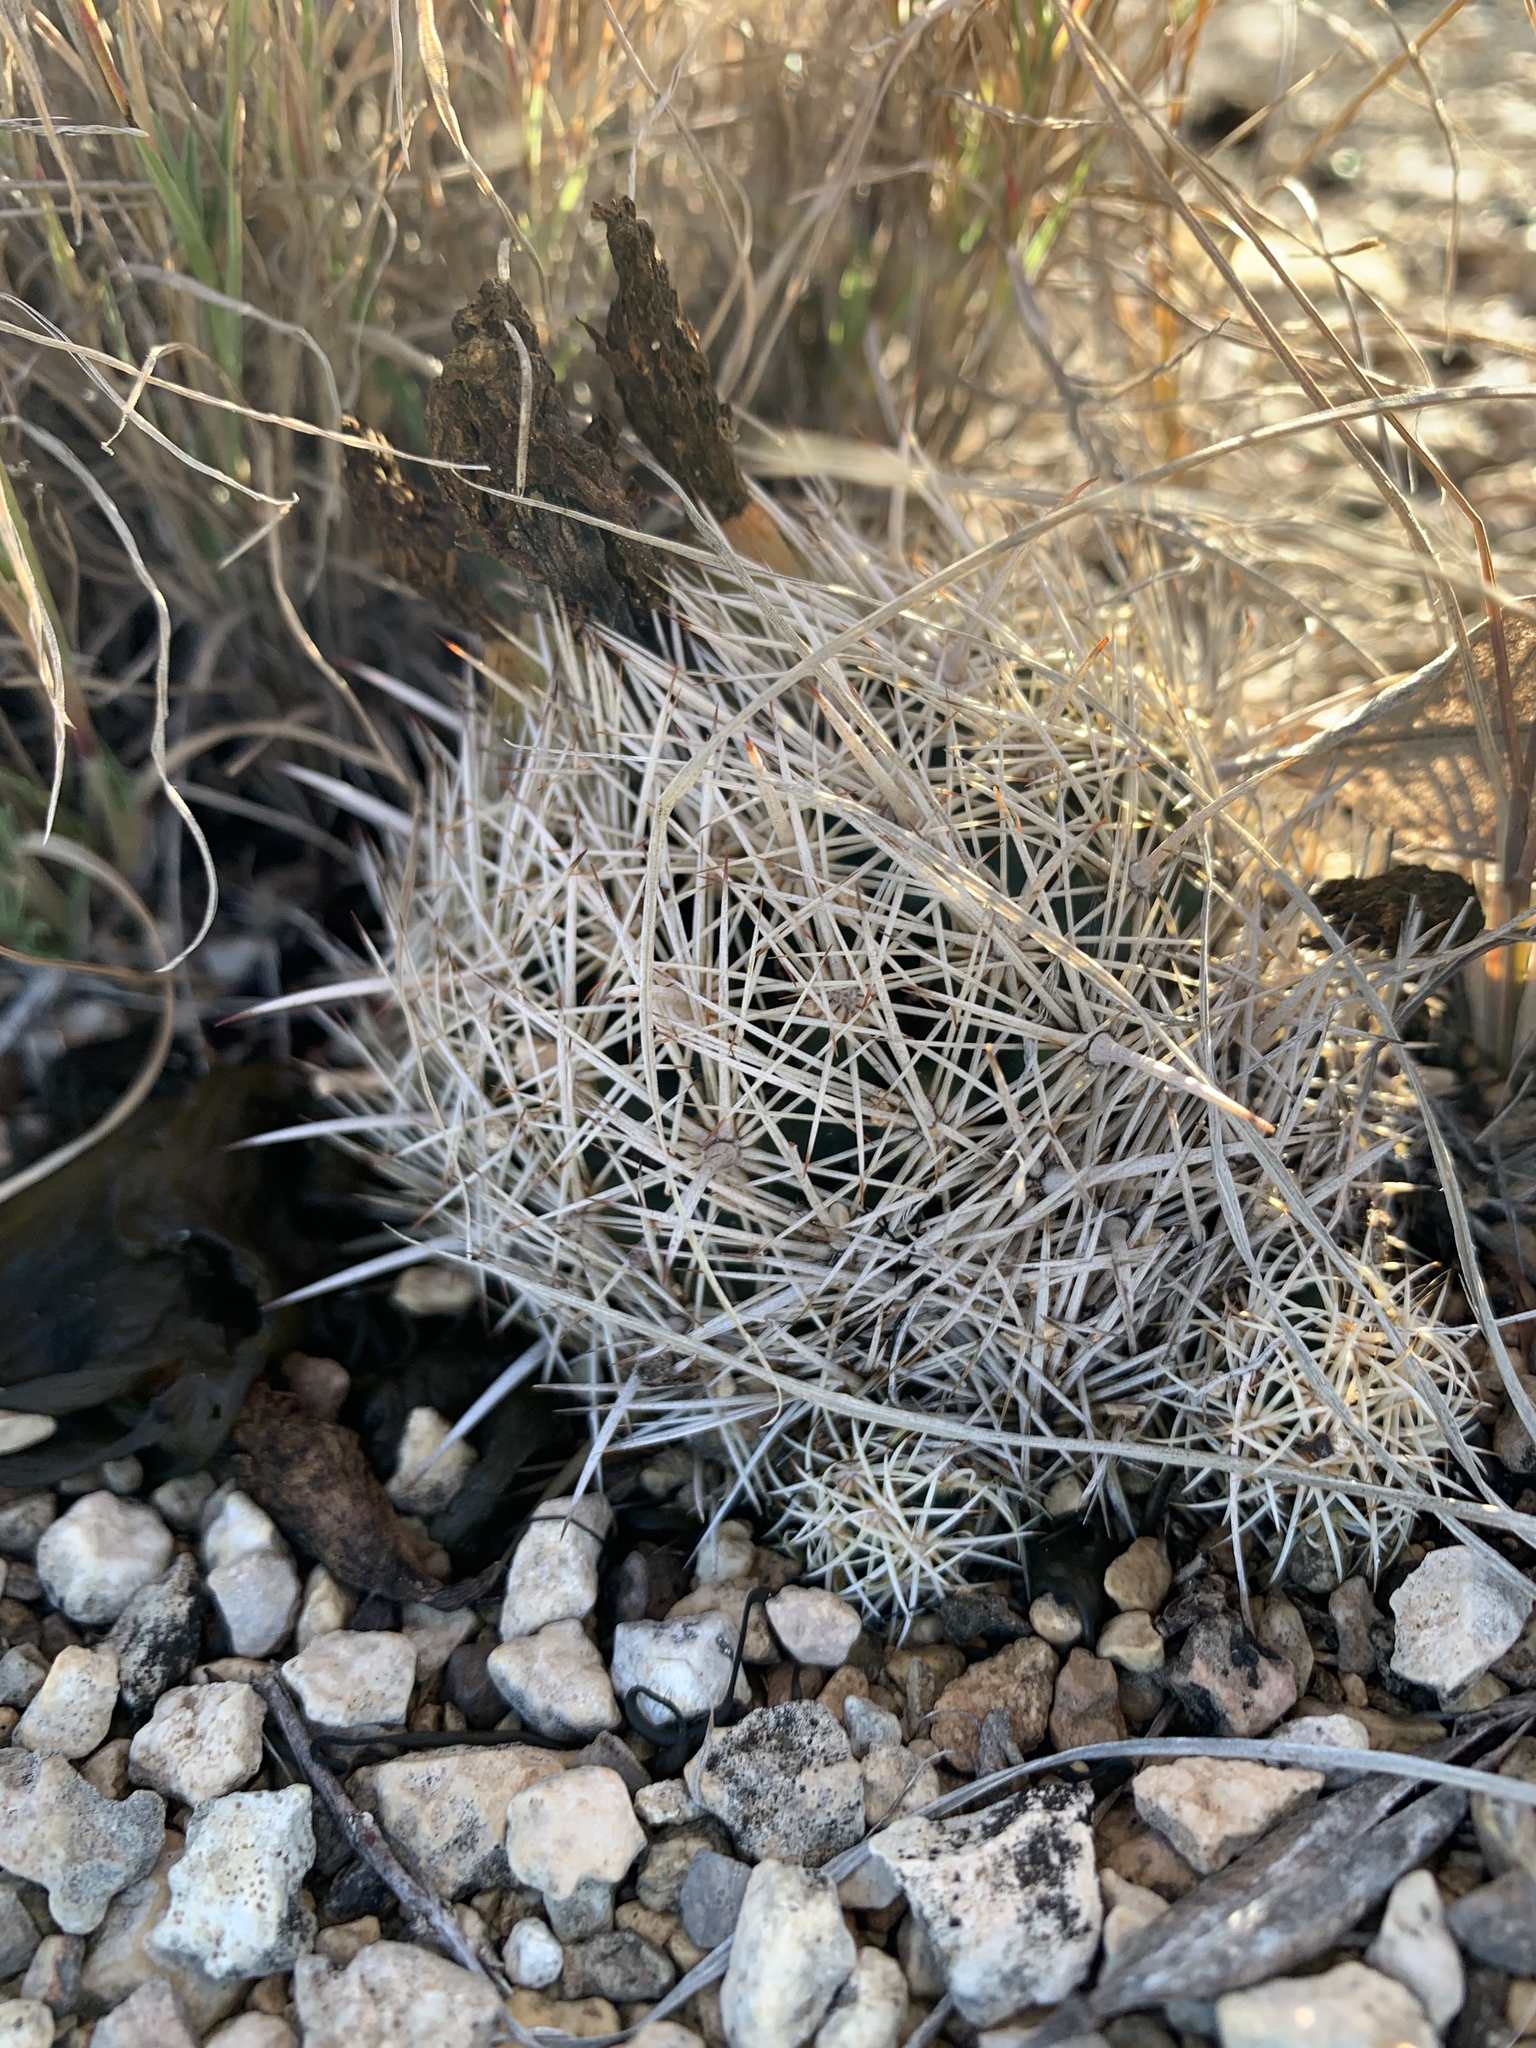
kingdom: Plantae
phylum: Tracheophyta
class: Magnoliopsida
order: Caryophyllales
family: Cactaceae
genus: Coryphantha
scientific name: Coryphantha echinus
